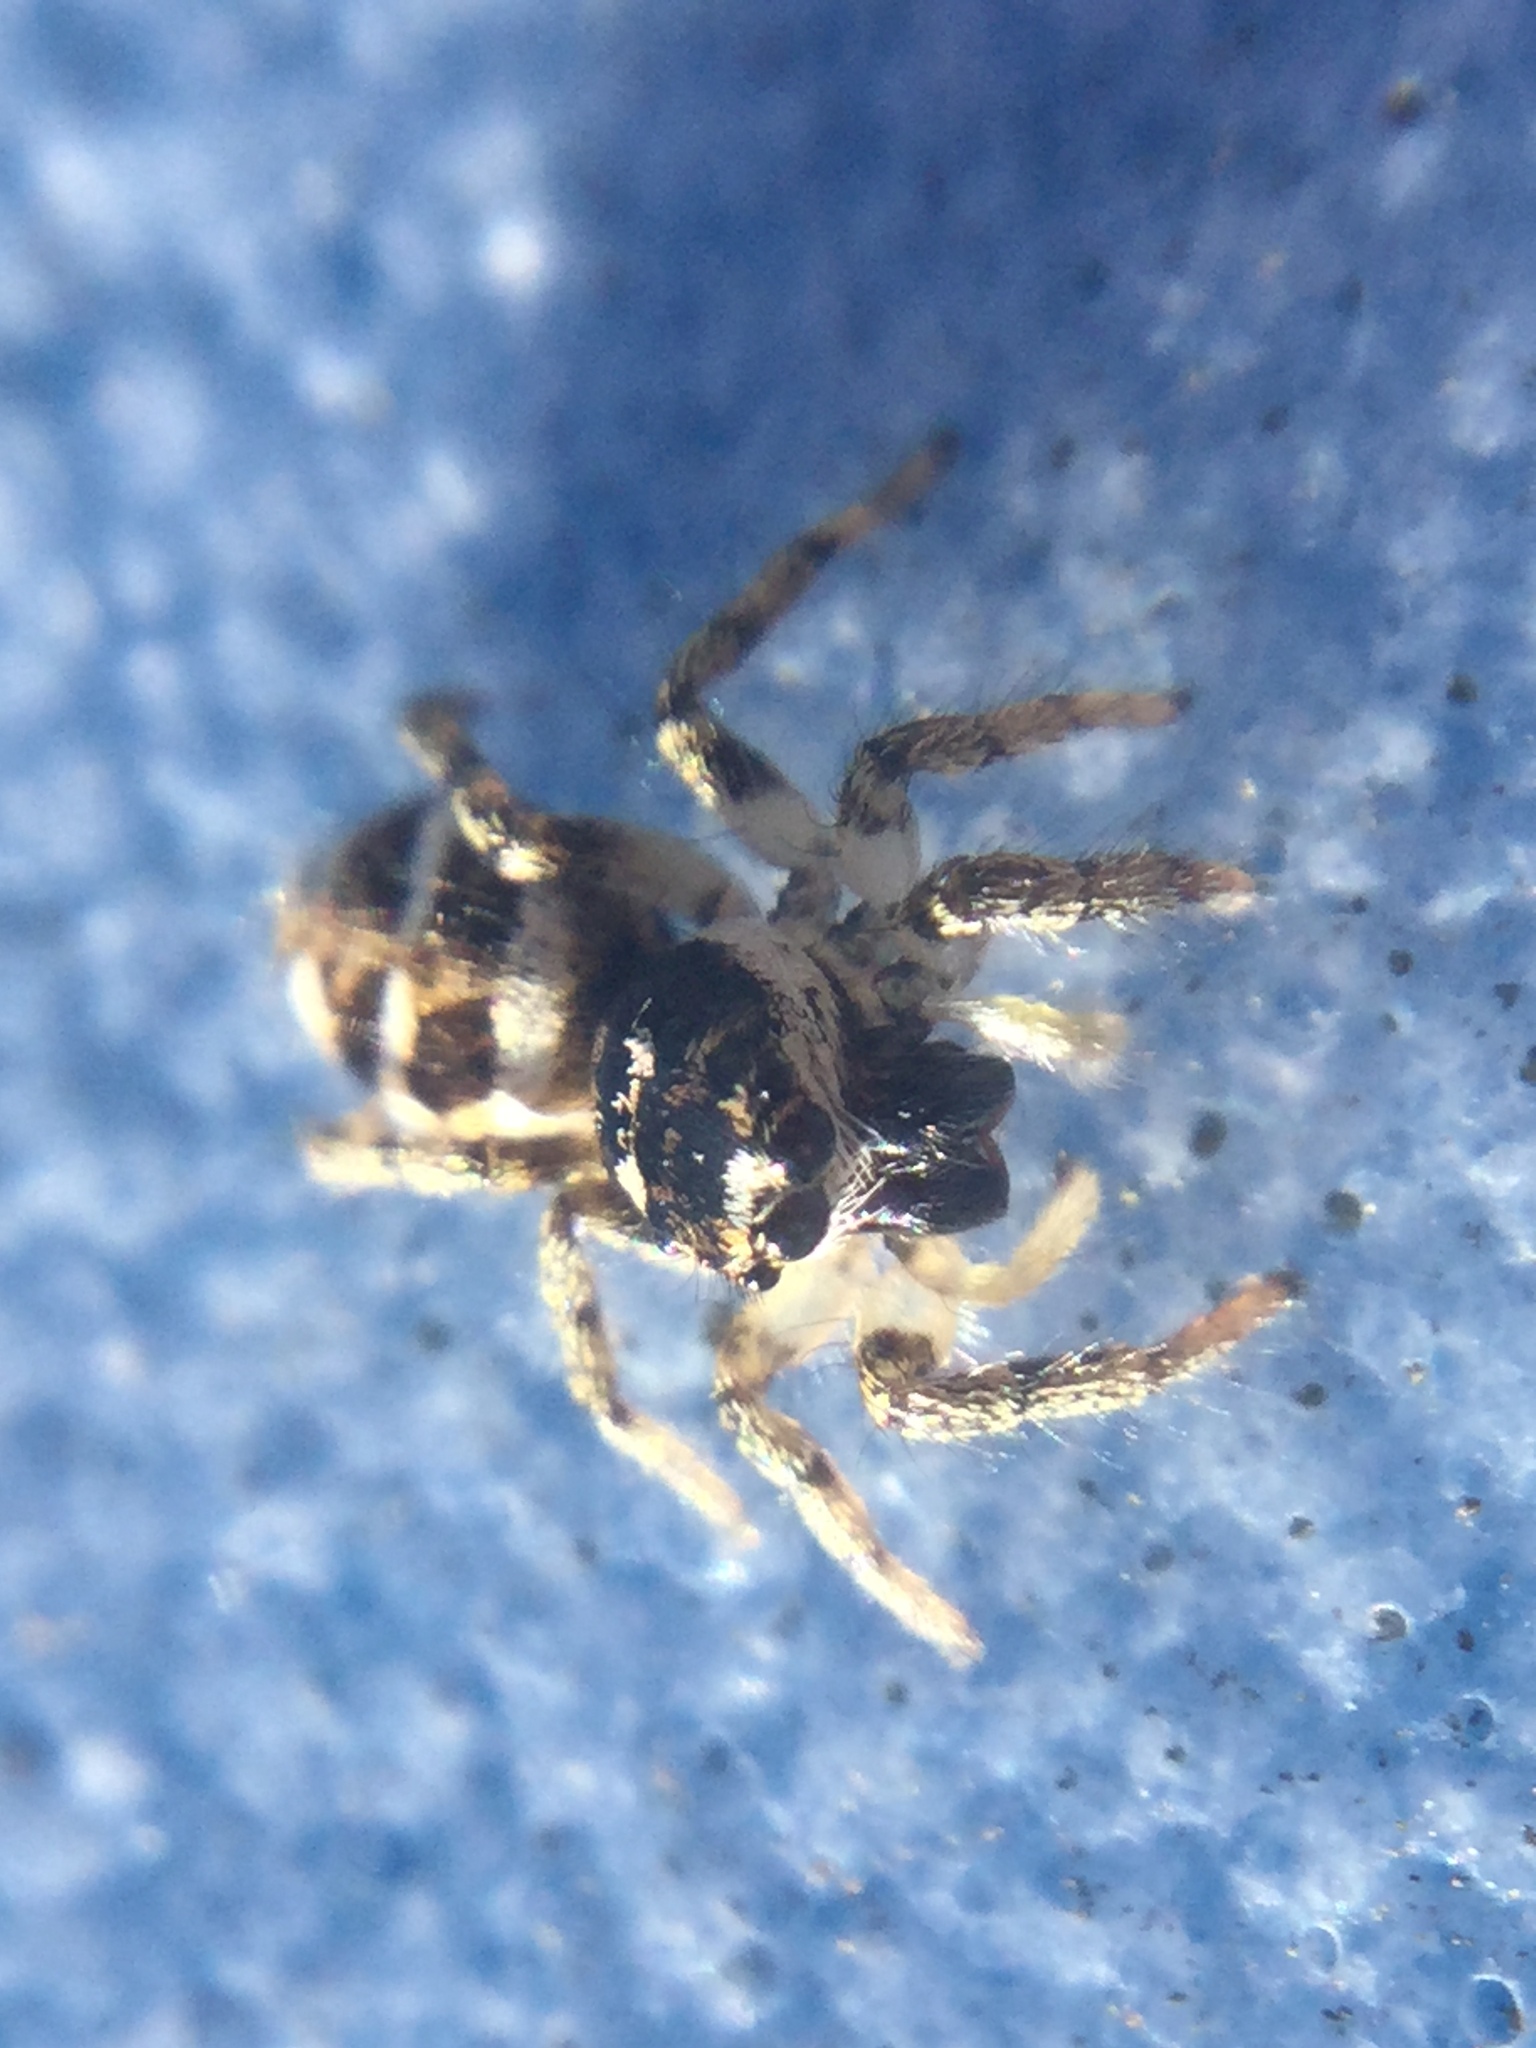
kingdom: Animalia
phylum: Arthropoda
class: Arachnida
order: Araneae
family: Salticidae
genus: Salticus
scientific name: Salticus scenicus
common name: Zebra jumper
